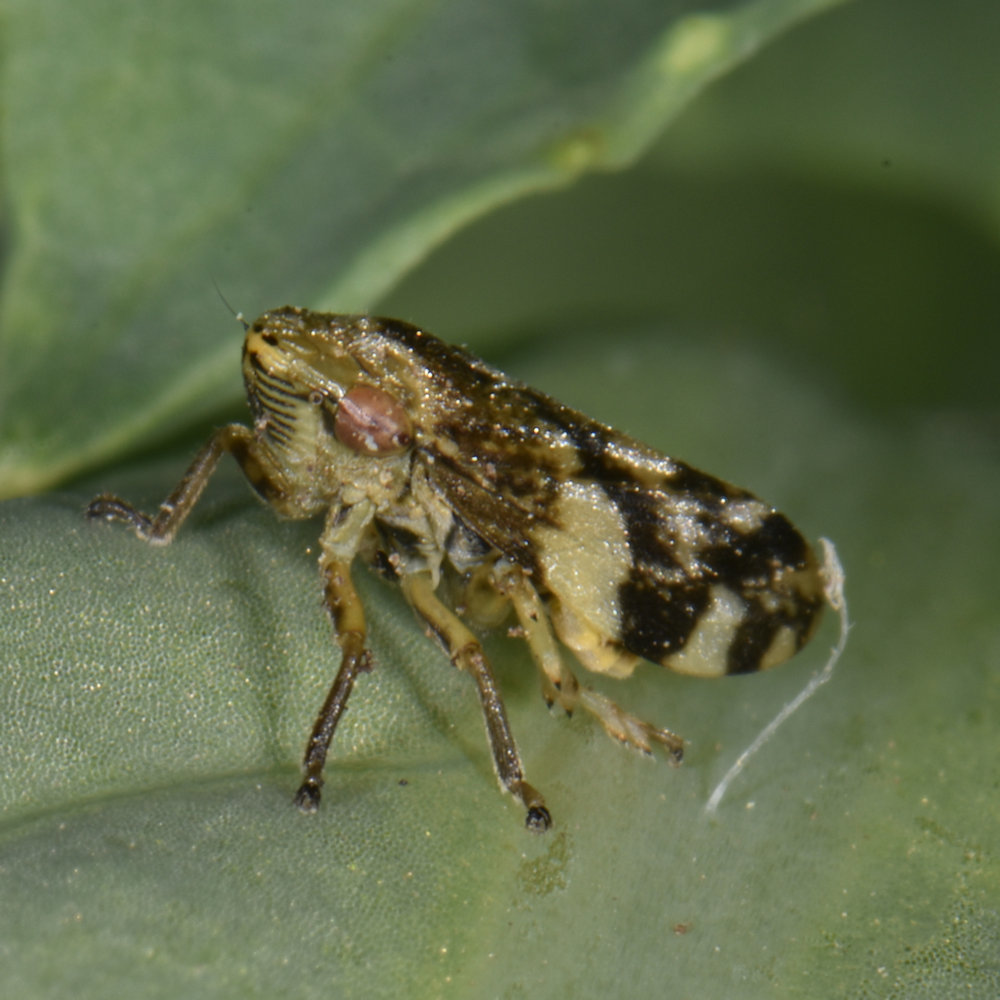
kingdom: Animalia
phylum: Arthropoda
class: Insecta
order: Hemiptera
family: Aphrophoridae
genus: Philaenus
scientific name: Philaenus spumarius
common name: Meadow spittlebug
